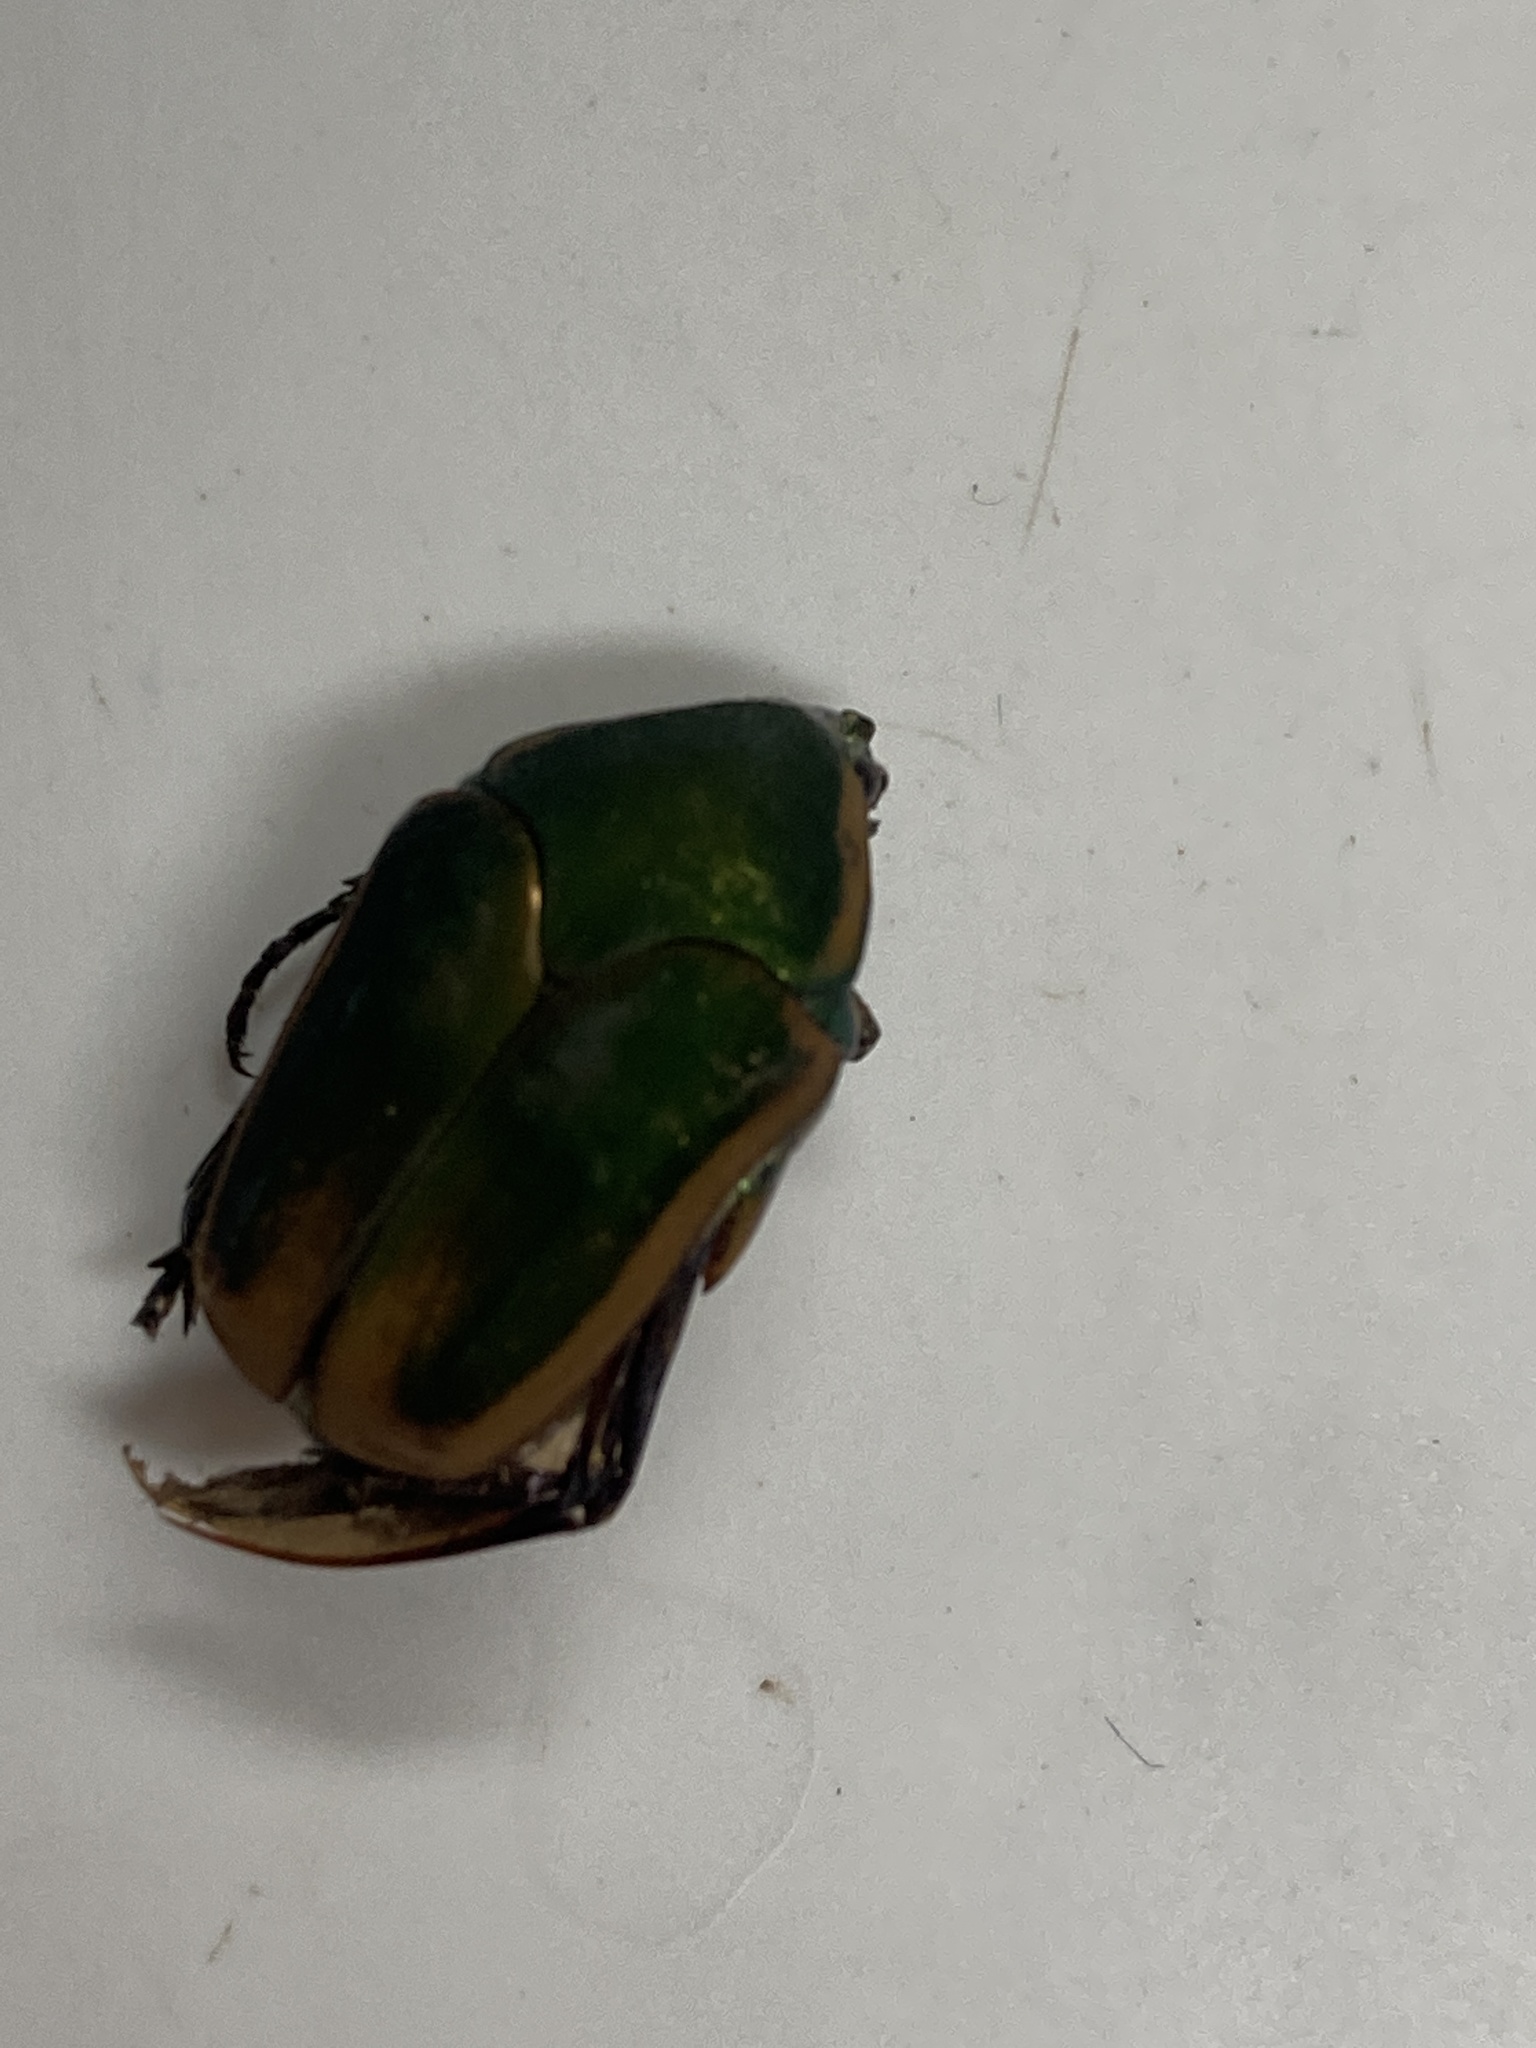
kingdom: Animalia
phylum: Arthropoda
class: Insecta
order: Coleoptera
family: Scarabaeidae
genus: Cotinis
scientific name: Cotinis nitida
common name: Common green june beetle
